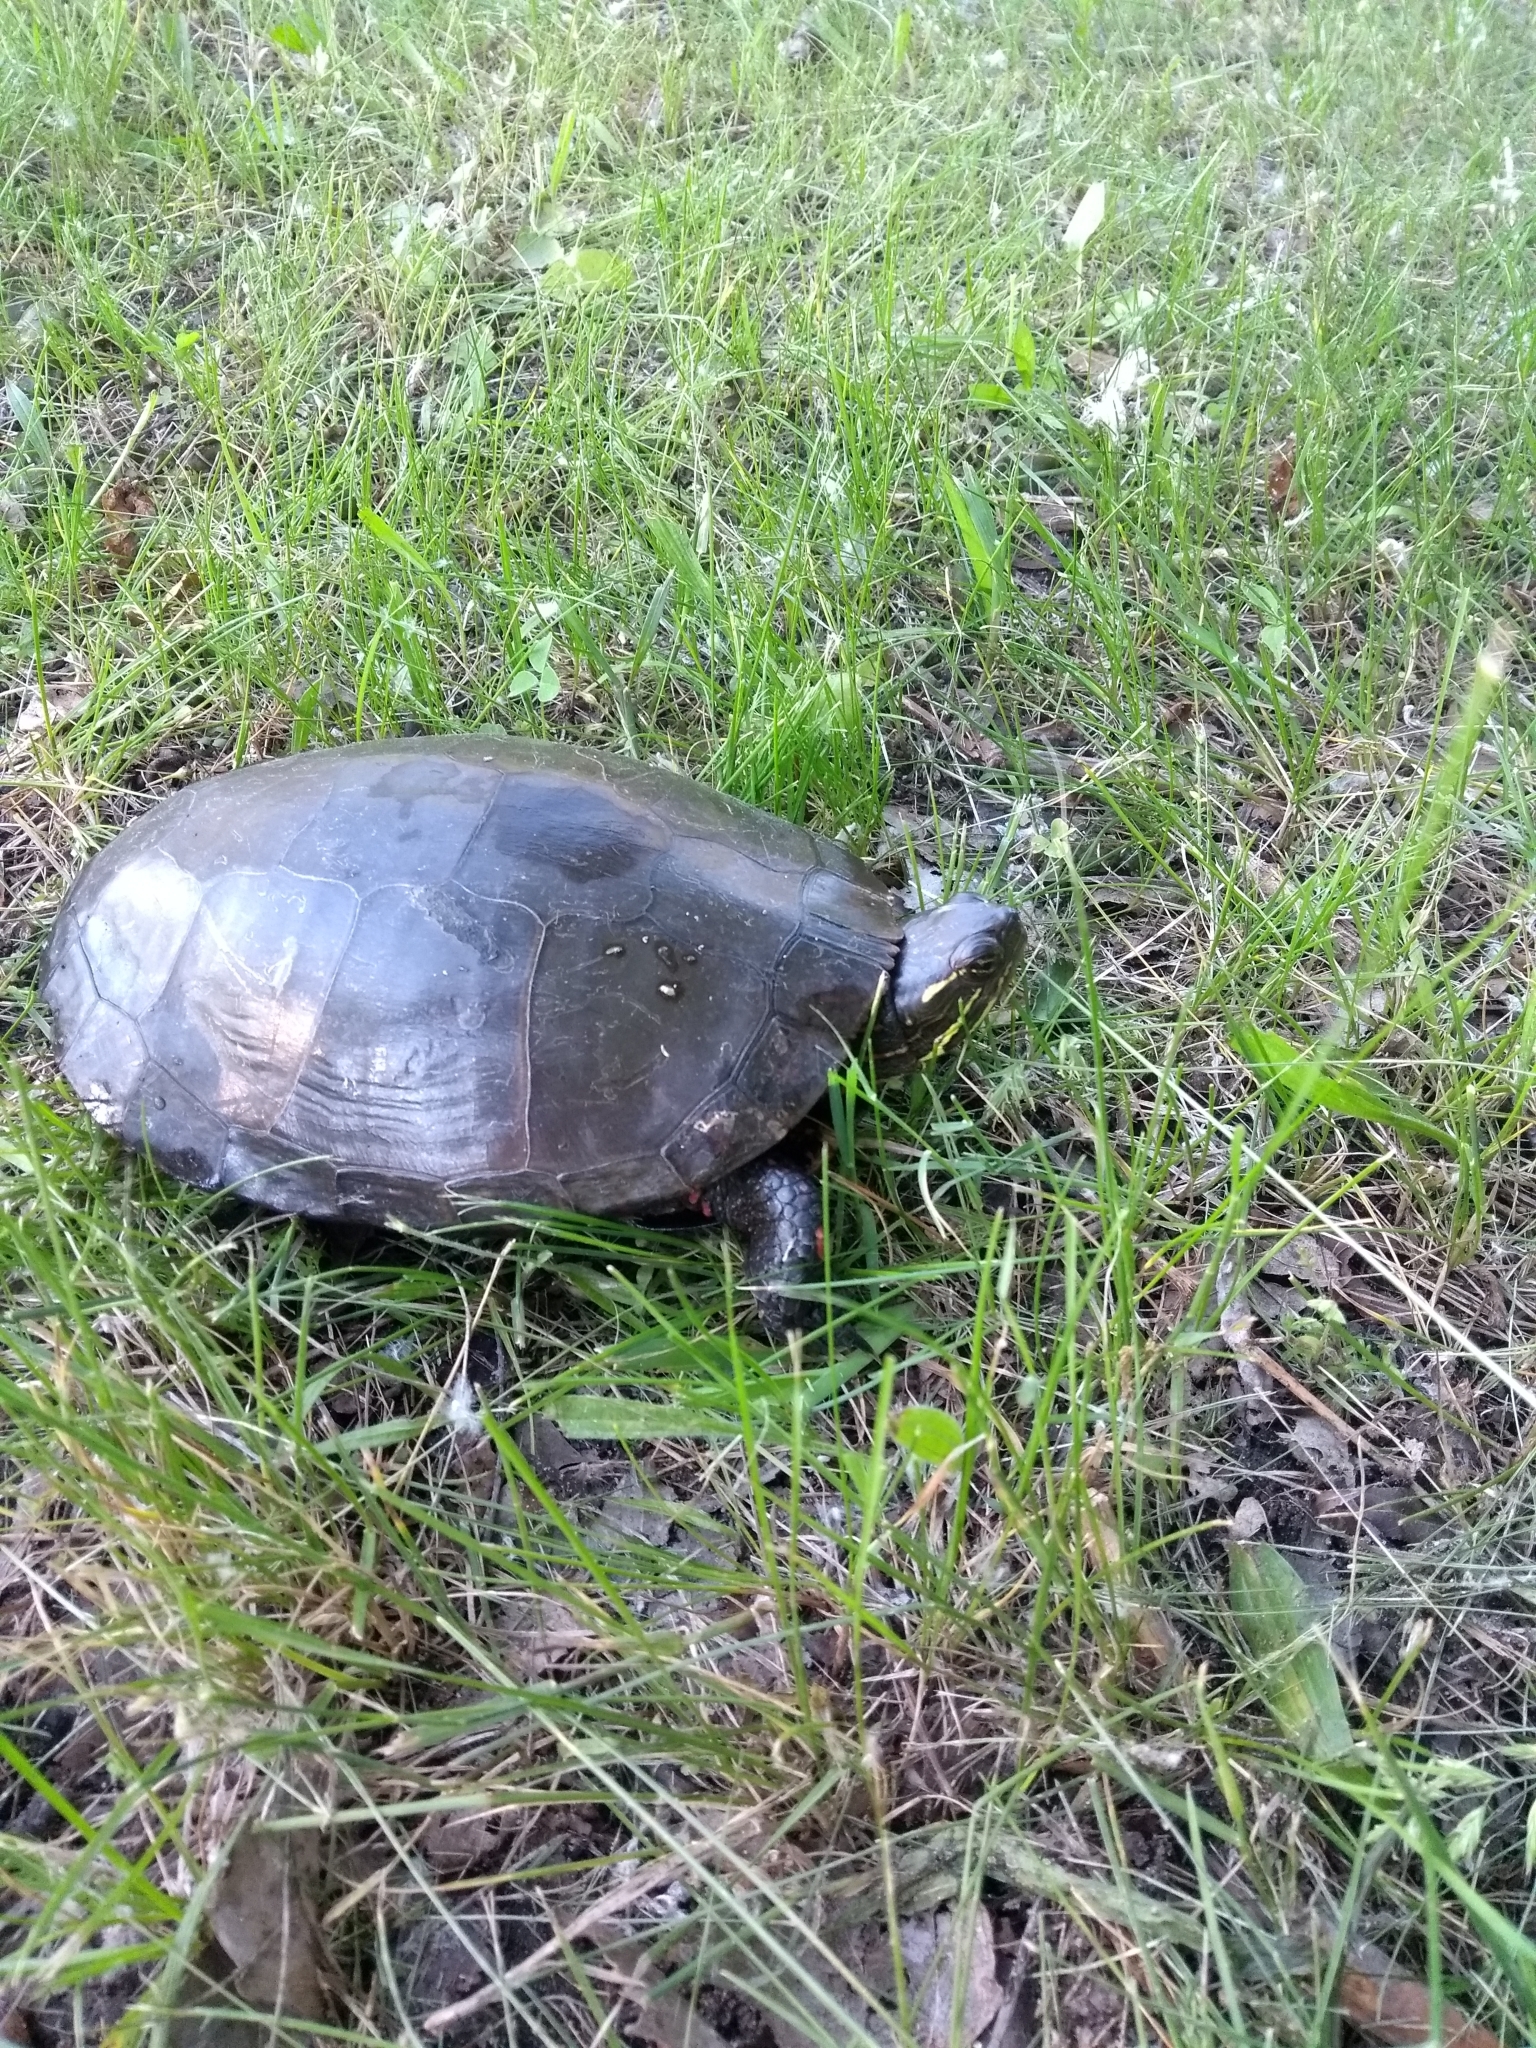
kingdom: Animalia
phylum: Chordata
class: Testudines
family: Emydidae
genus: Chrysemys
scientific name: Chrysemys picta
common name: Painted turtle
